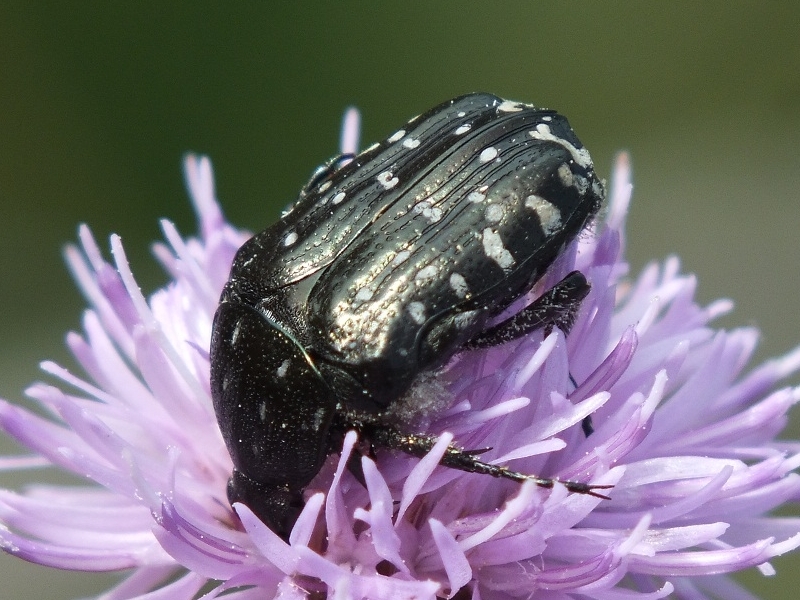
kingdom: Animalia
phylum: Arthropoda
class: Insecta
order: Coleoptera
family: Scarabaeidae
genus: Oxythyrea
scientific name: Oxythyrea funesta
